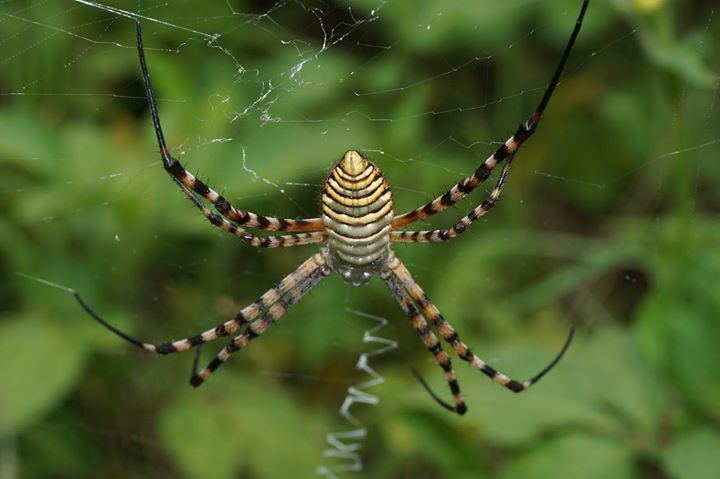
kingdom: Animalia
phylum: Arthropoda
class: Arachnida
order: Araneae
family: Araneidae
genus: Argiope
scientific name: Argiope trifasciata
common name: Banded garden spider
